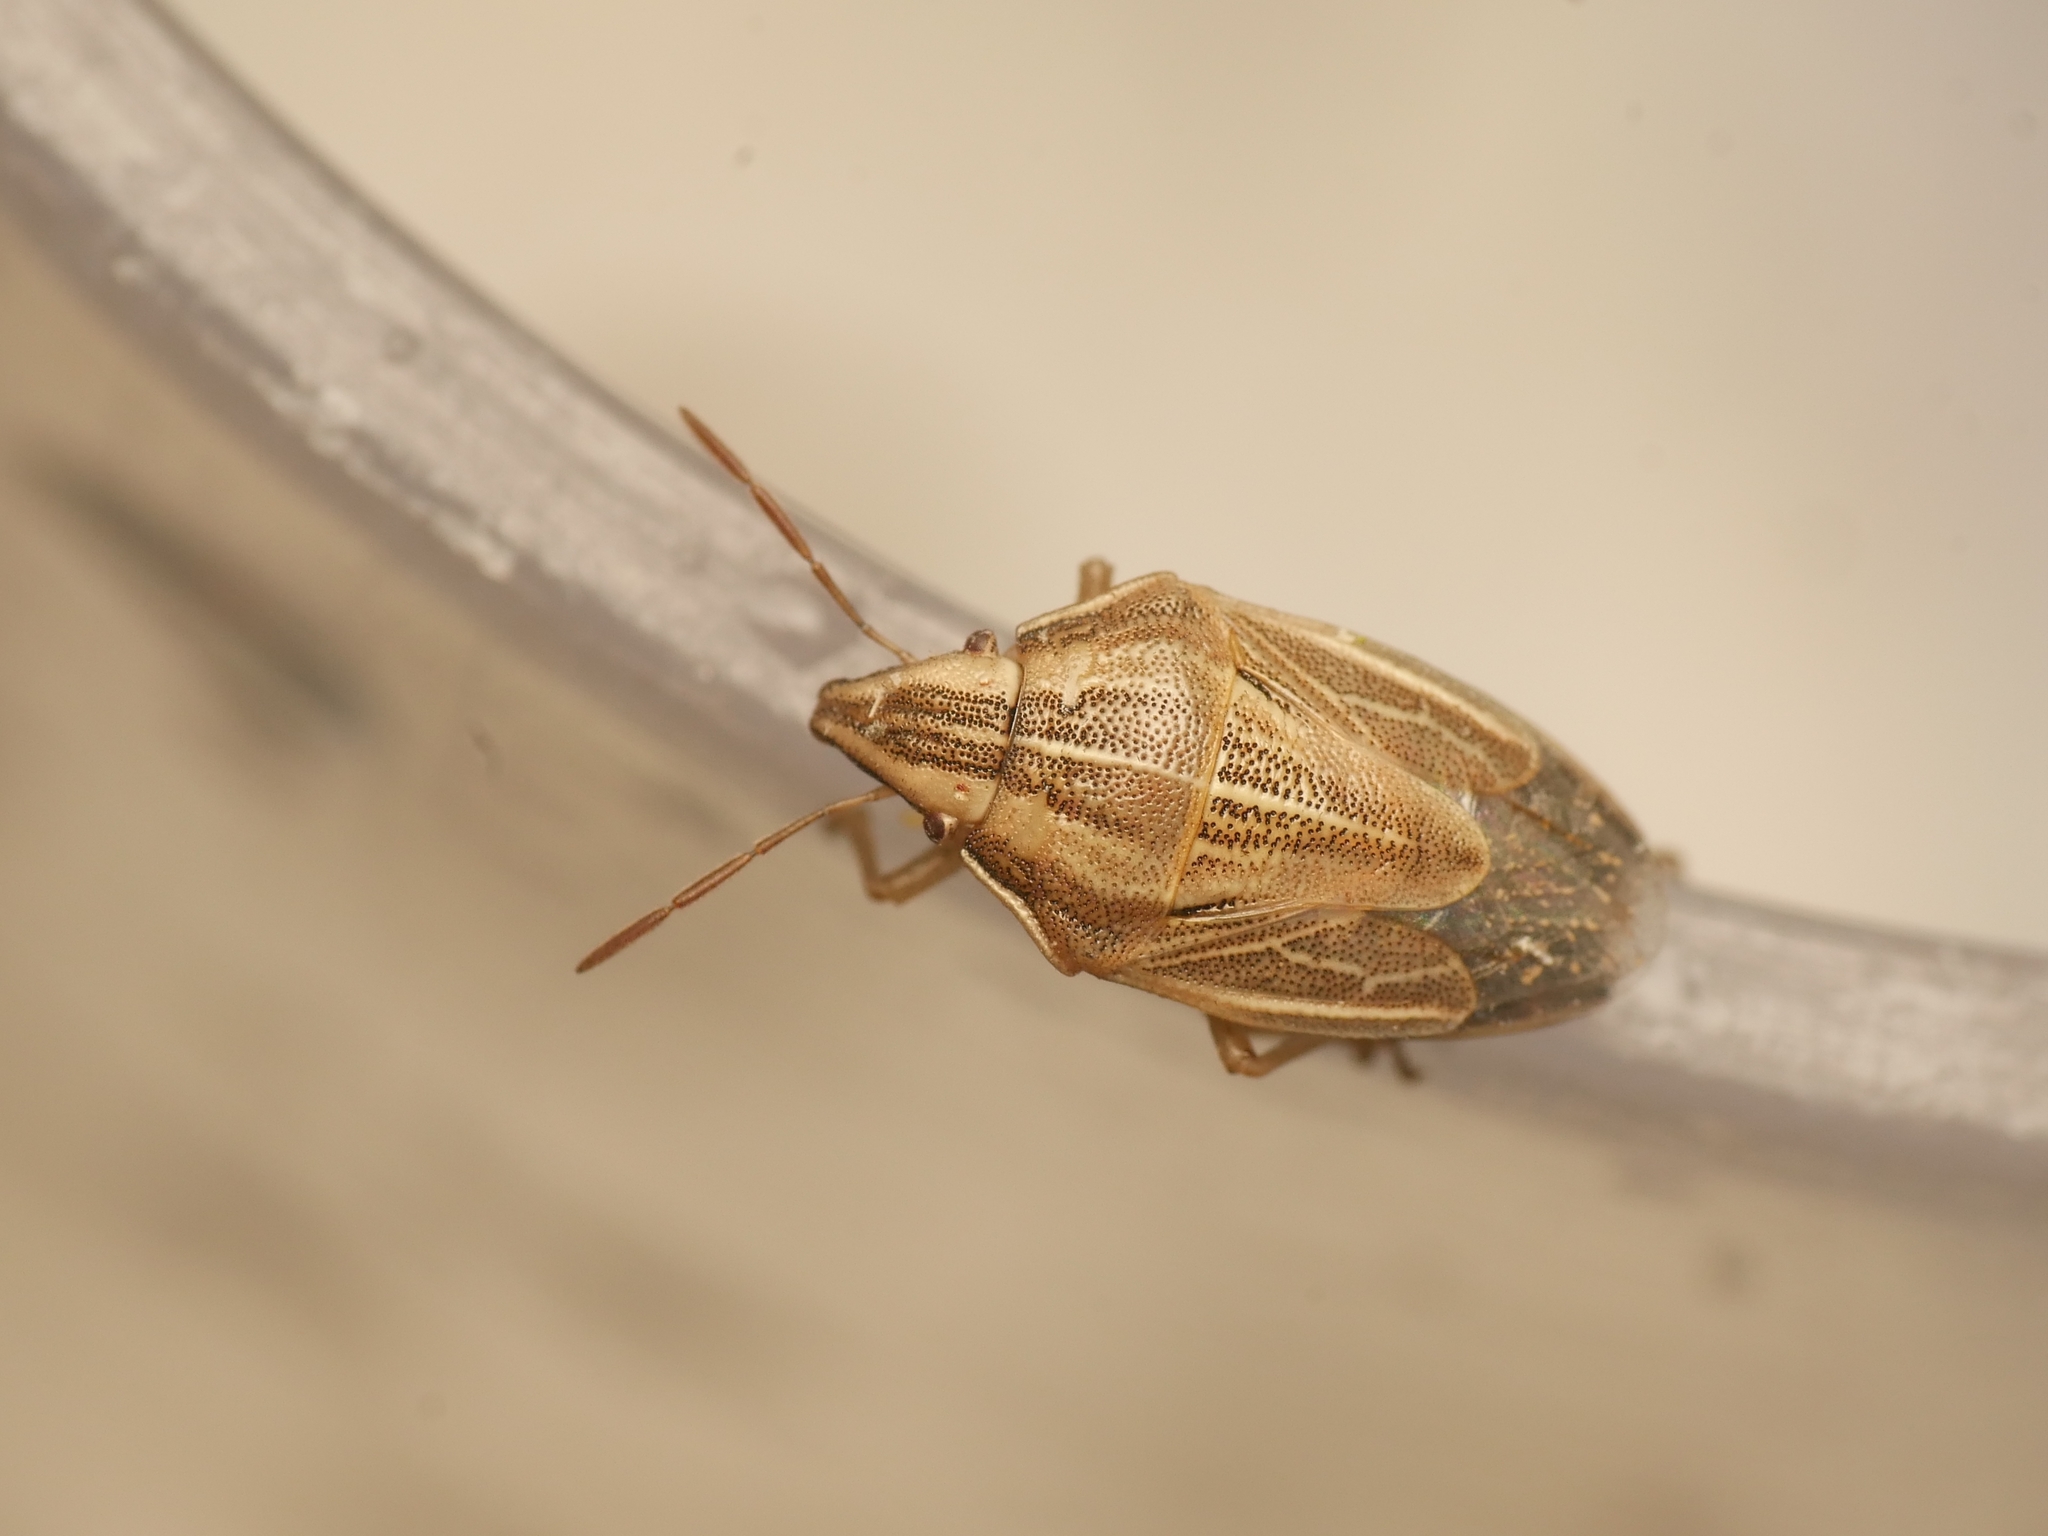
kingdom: Animalia
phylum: Arthropoda
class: Insecta
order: Hemiptera
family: Pentatomidae
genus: Aelia
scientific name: Aelia acuminata
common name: Bishop's mitre
